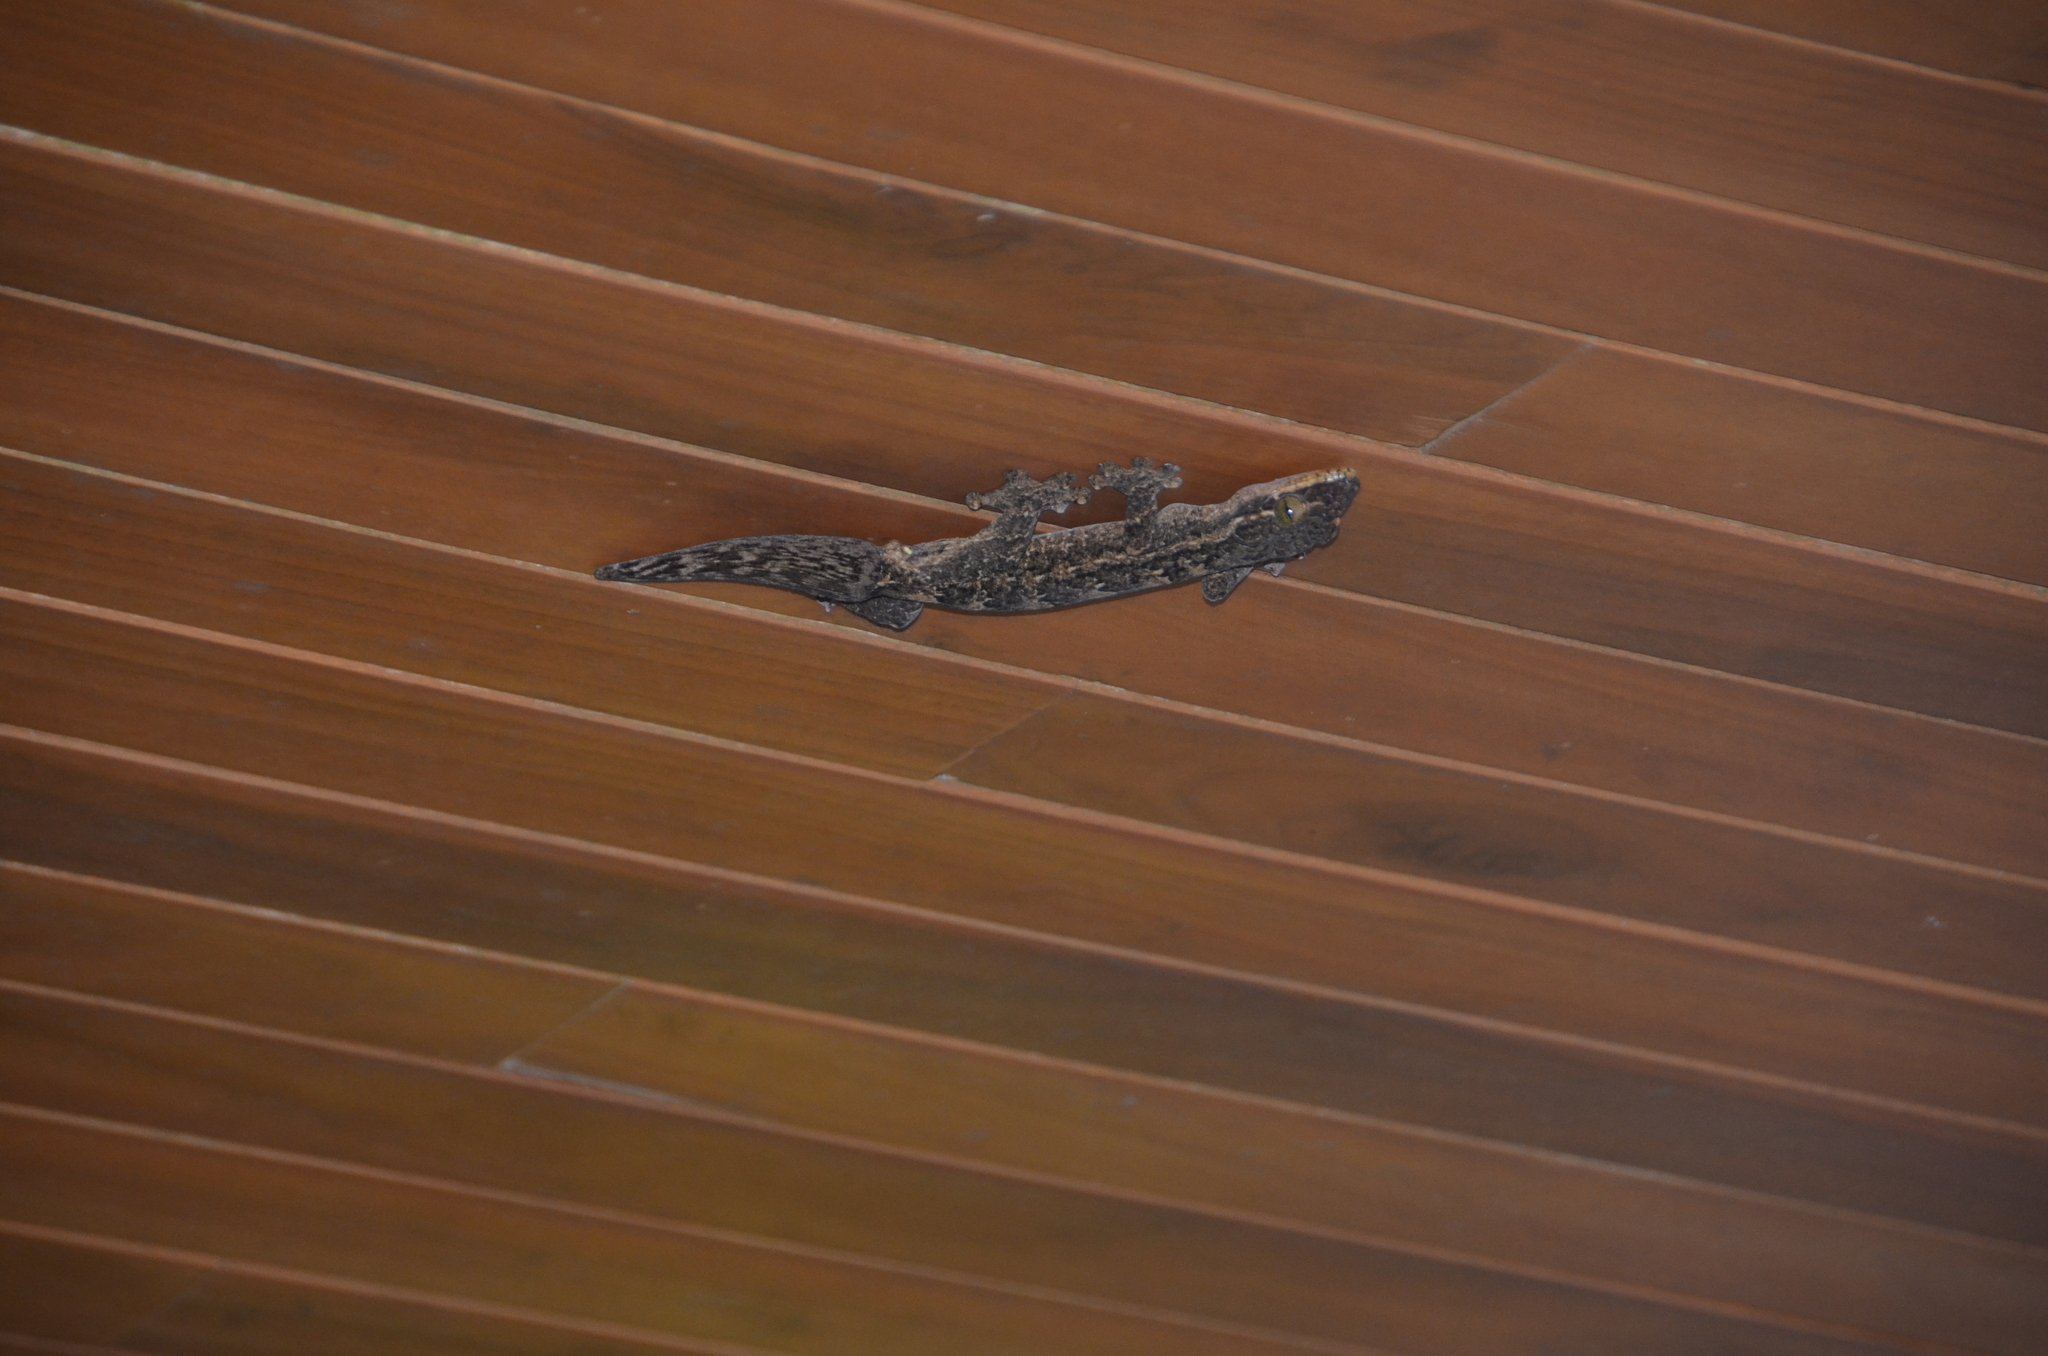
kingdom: Animalia
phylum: Chordata
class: Squamata
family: Phyllodactylidae
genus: Thecadactylus
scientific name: Thecadactylus rapicauda
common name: Turnip-tailed gecko
